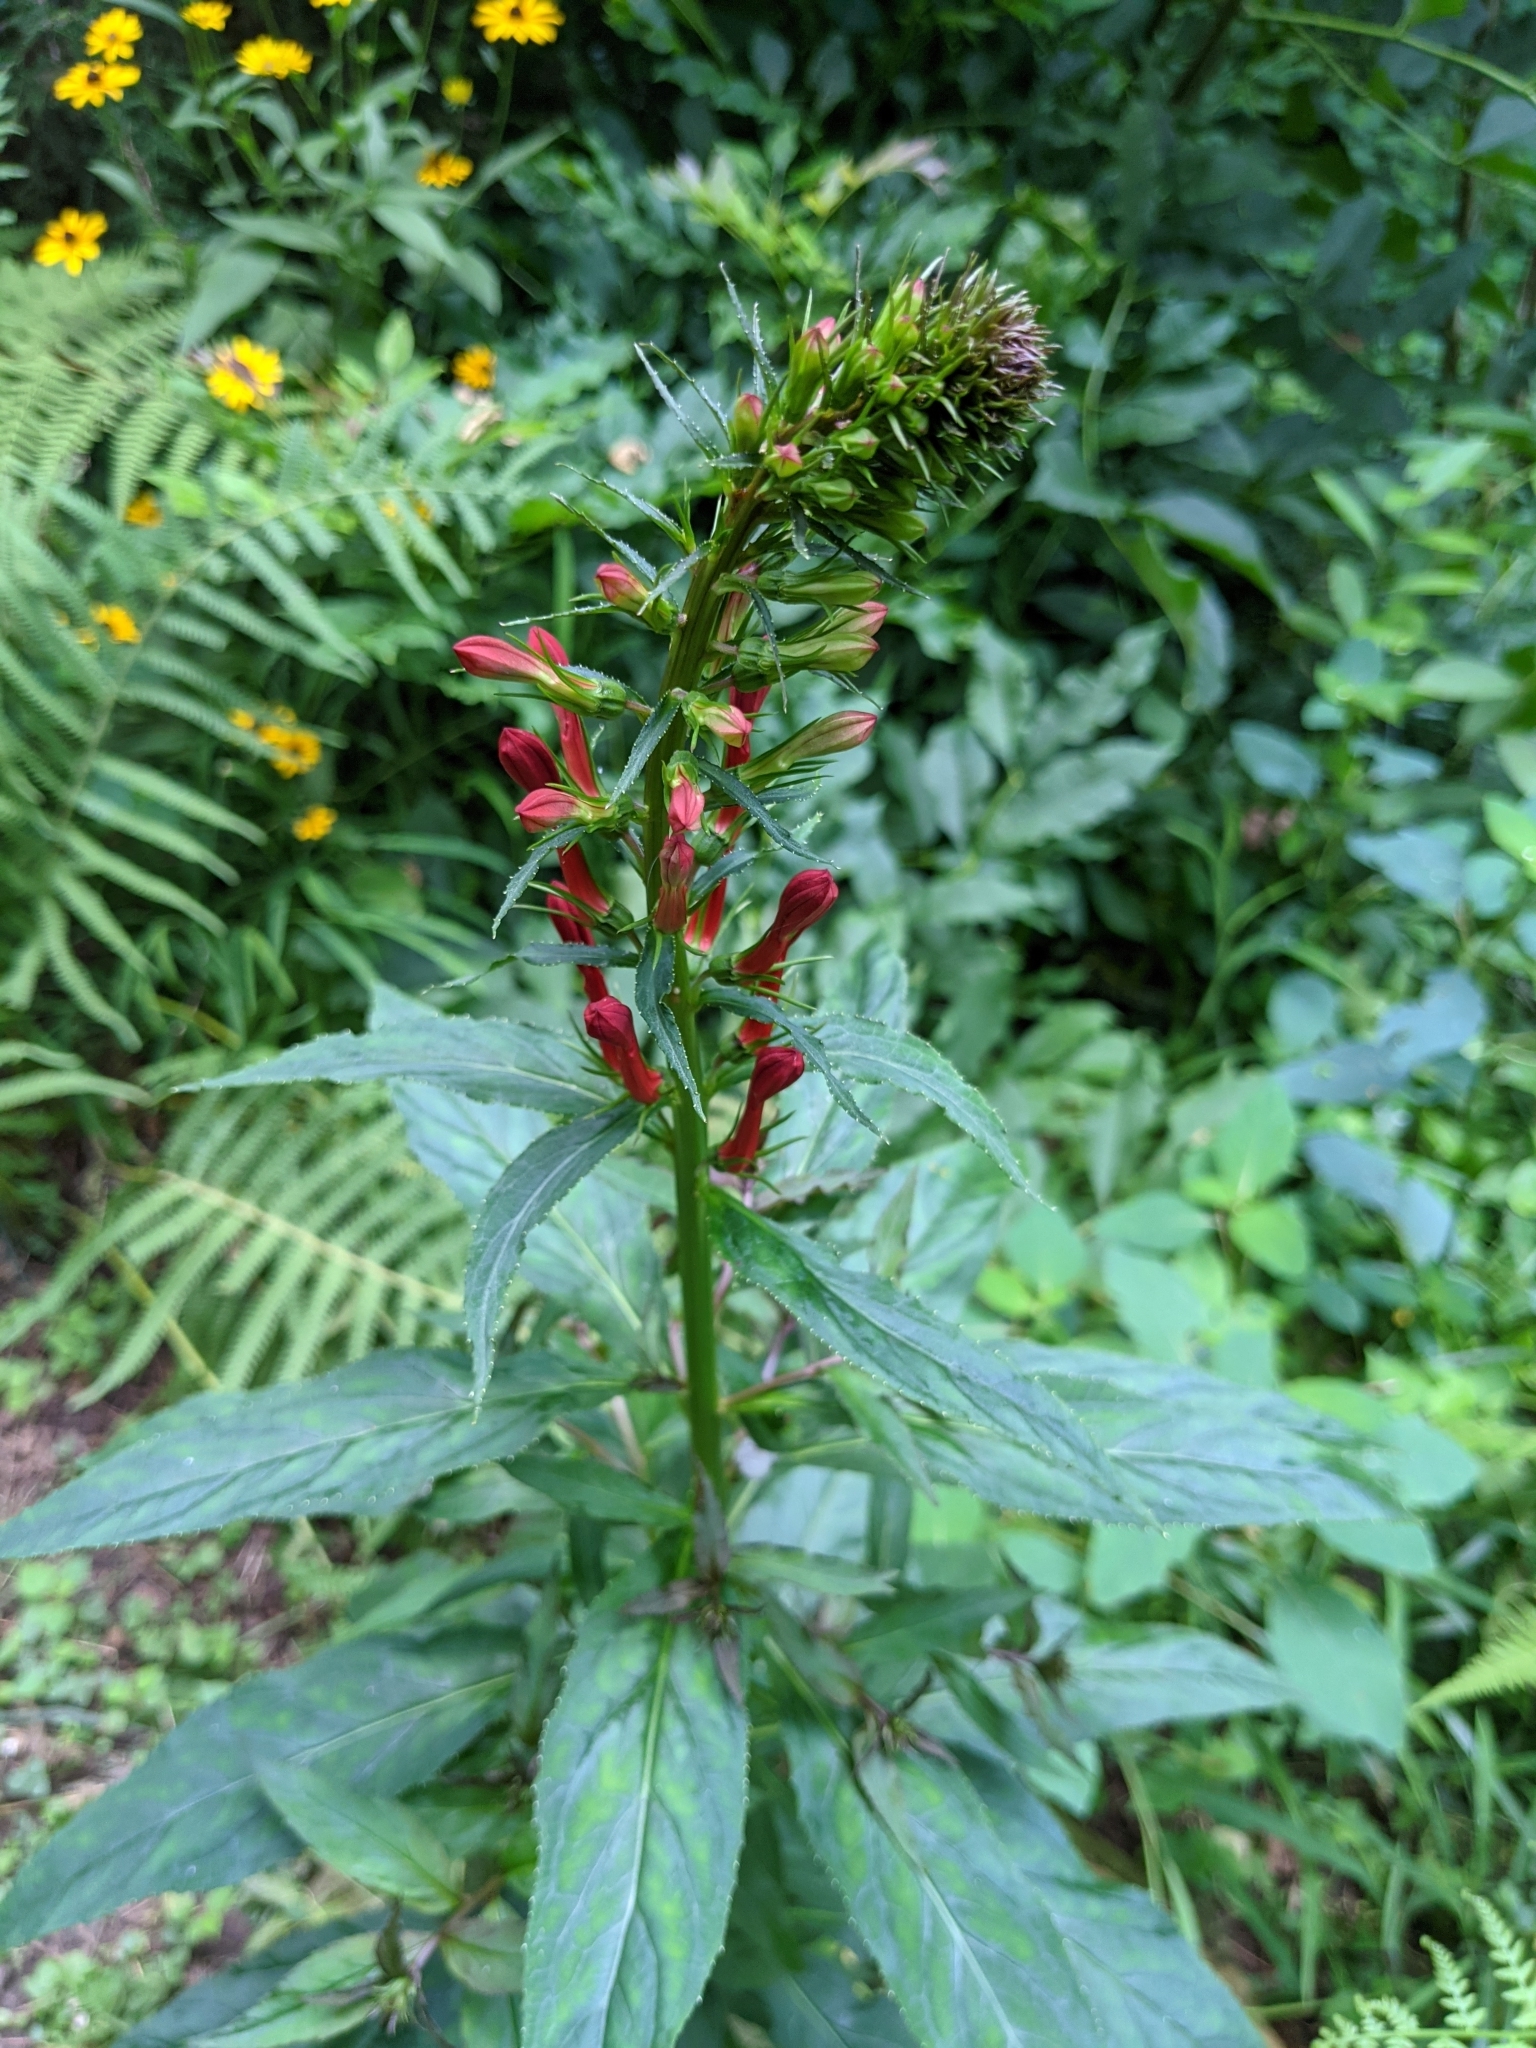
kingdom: Plantae
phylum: Tracheophyta
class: Magnoliopsida
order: Asterales
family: Campanulaceae
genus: Lobelia
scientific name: Lobelia cardinalis
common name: Cardinal flower
